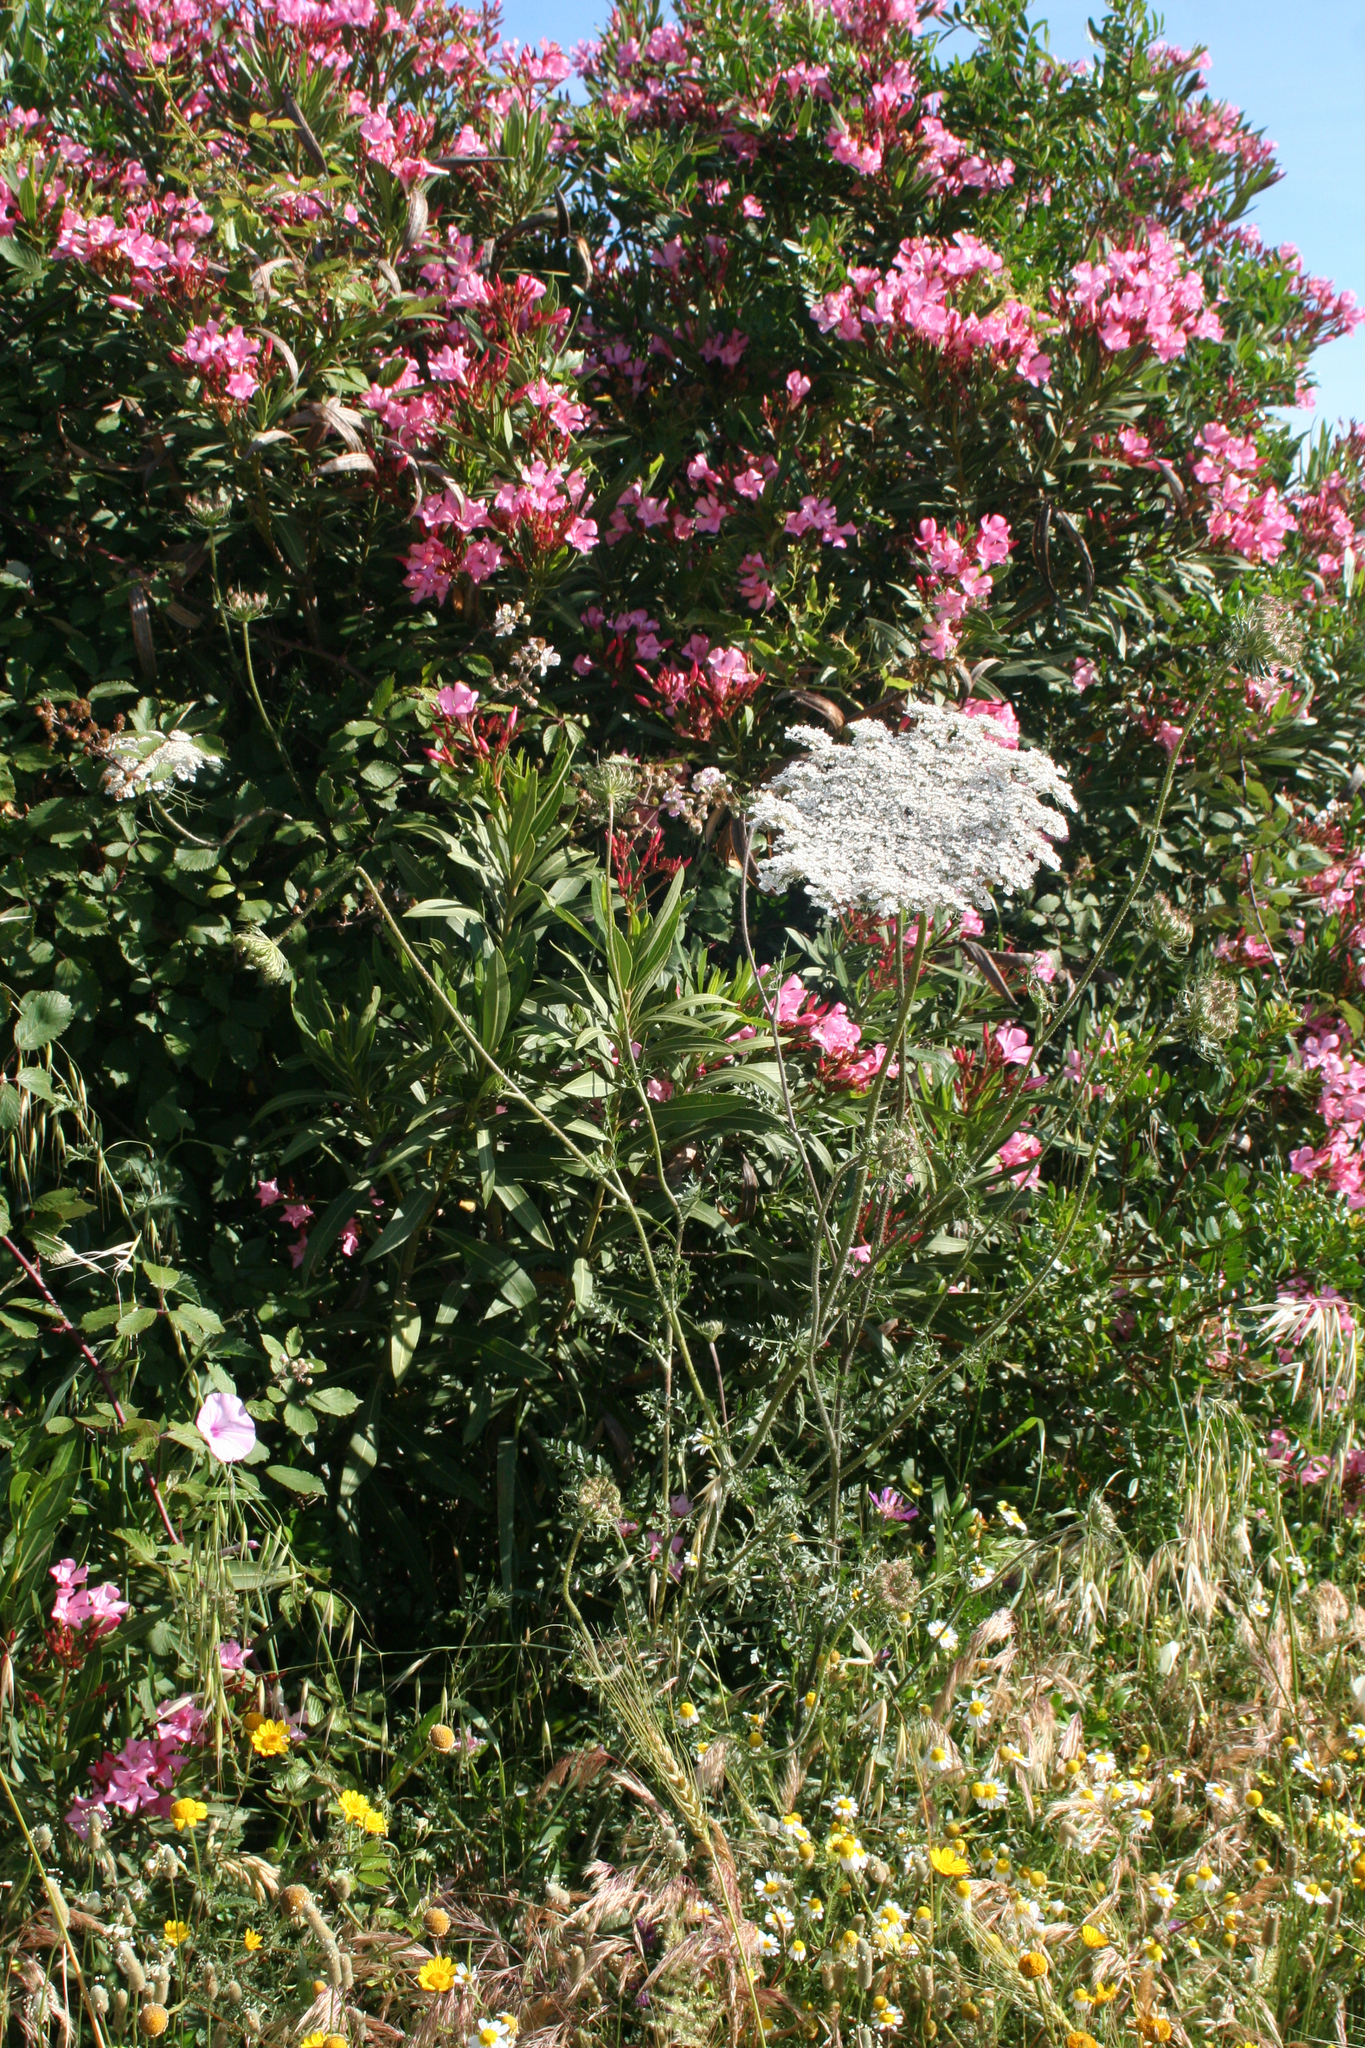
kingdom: Plantae
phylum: Tracheophyta
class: Magnoliopsida
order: Gentianales
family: Apocynaceae
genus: Nerium
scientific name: Nerium oleander
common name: Oleander
